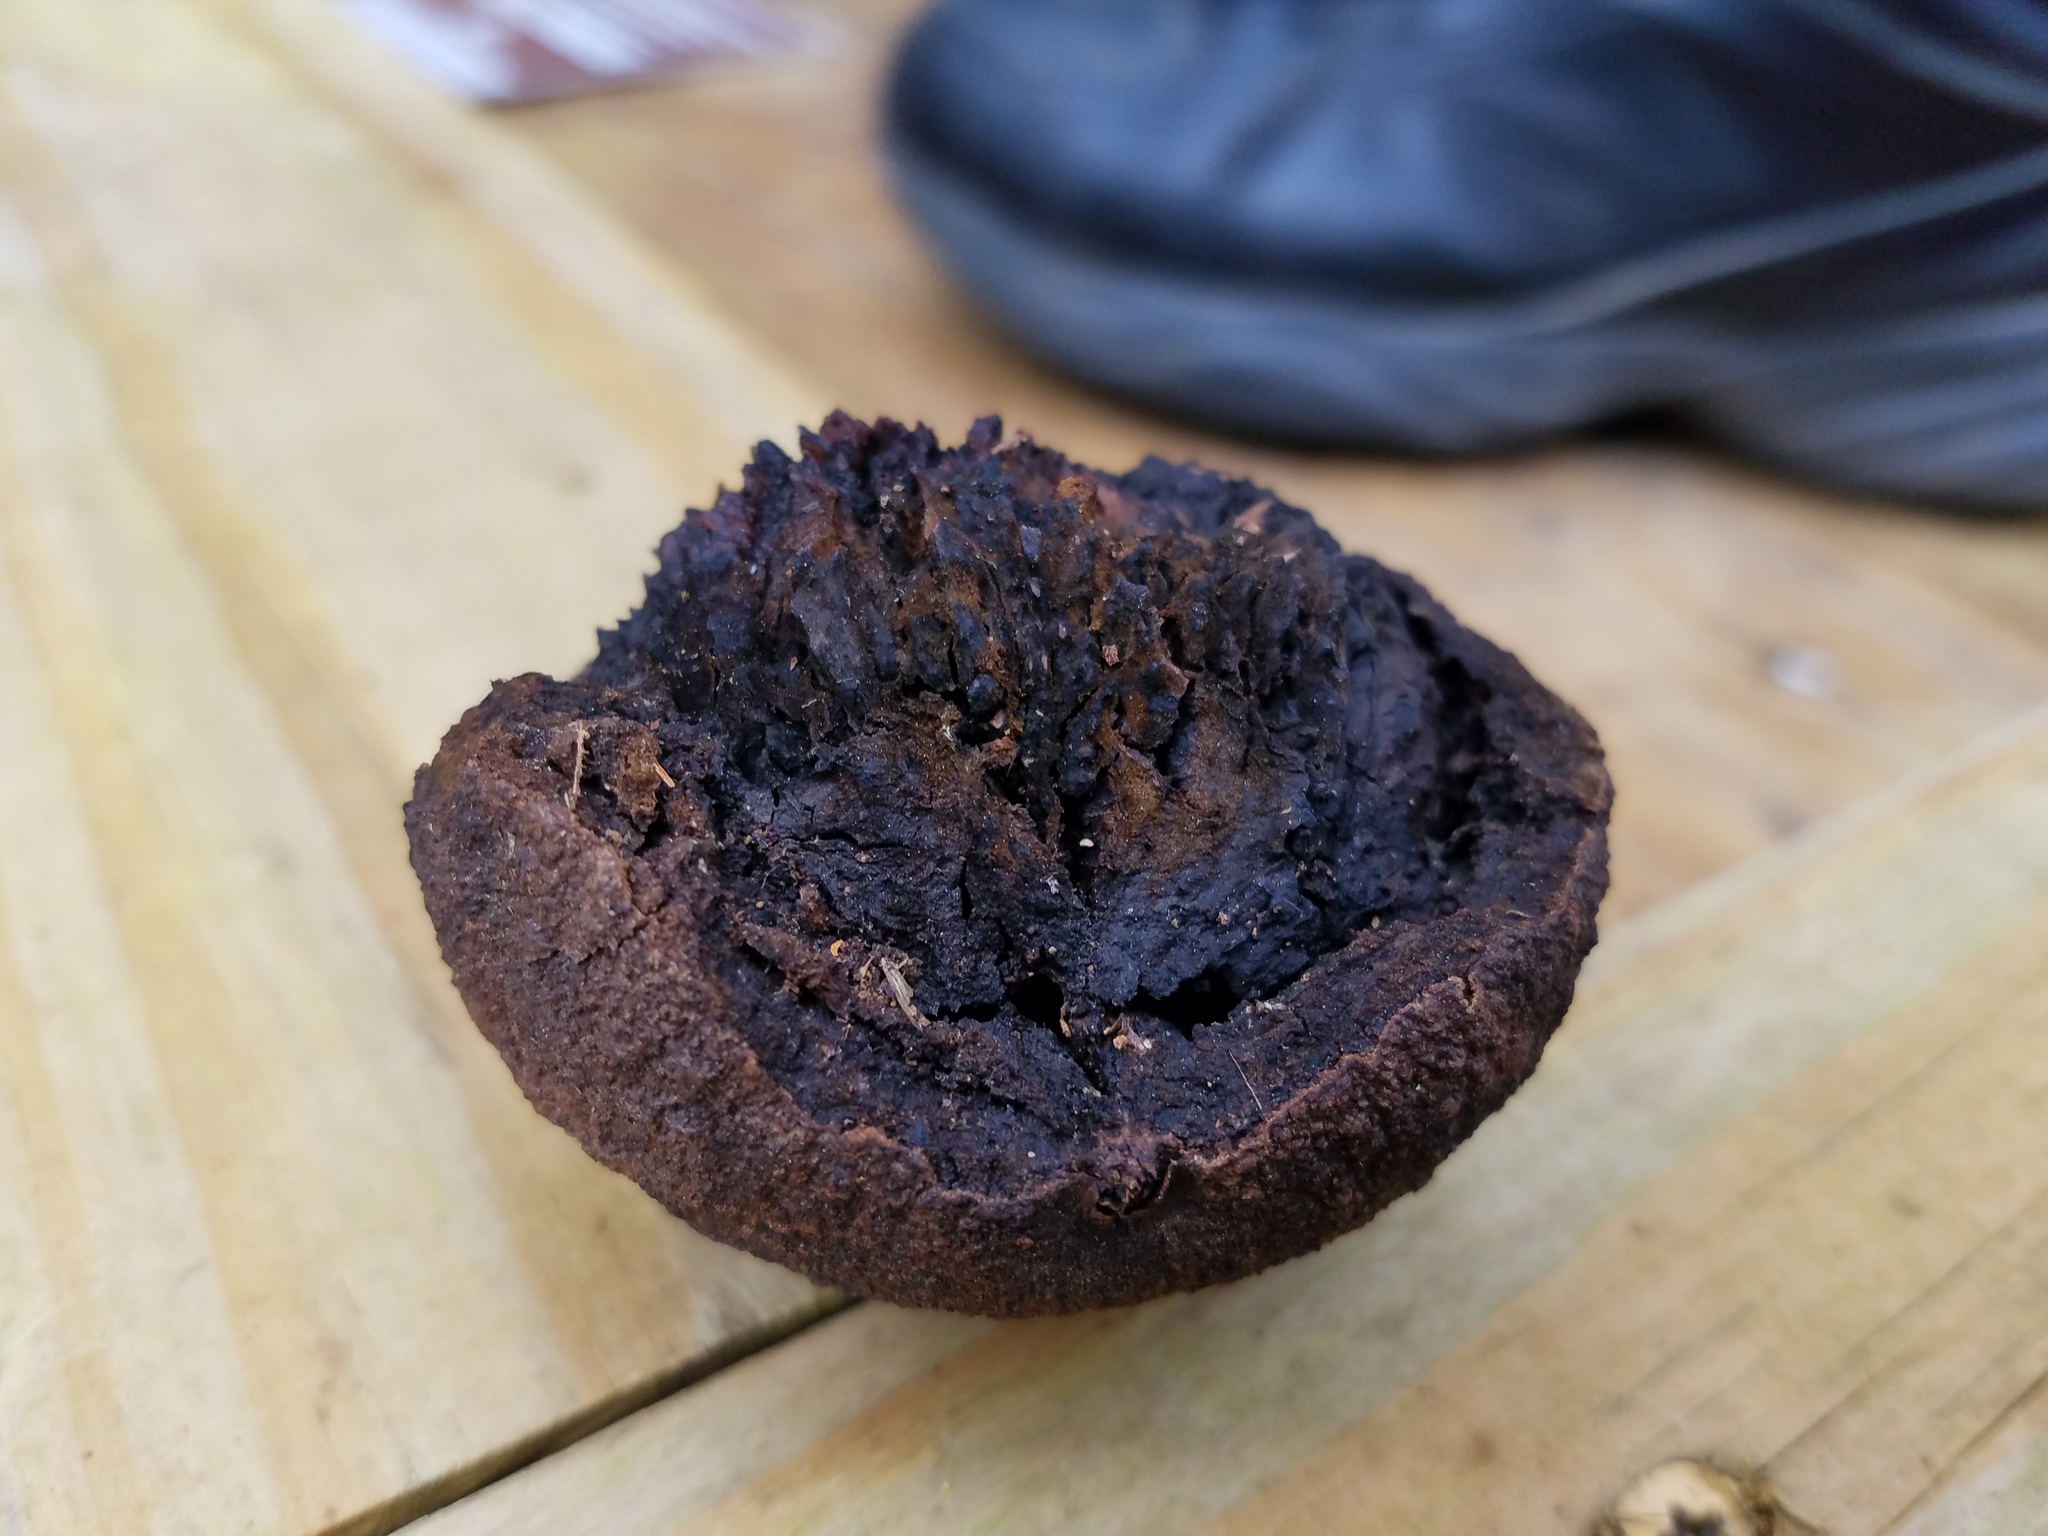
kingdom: Plantae
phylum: Tracheophyta
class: Magnoliopsida
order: Fagales
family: Juglandaceae
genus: Juglans
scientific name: Juglans nigra
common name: Black walnut
